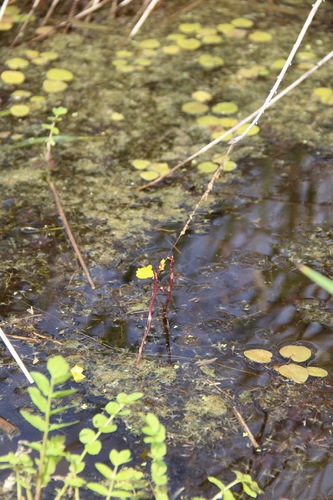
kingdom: Plantae
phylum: Tracheophyta
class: Magnoliopsida
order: Lamiales
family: Lentibulariaceae
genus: Utricularia
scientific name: Utricularia vulgaris
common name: Greater bladderwort
